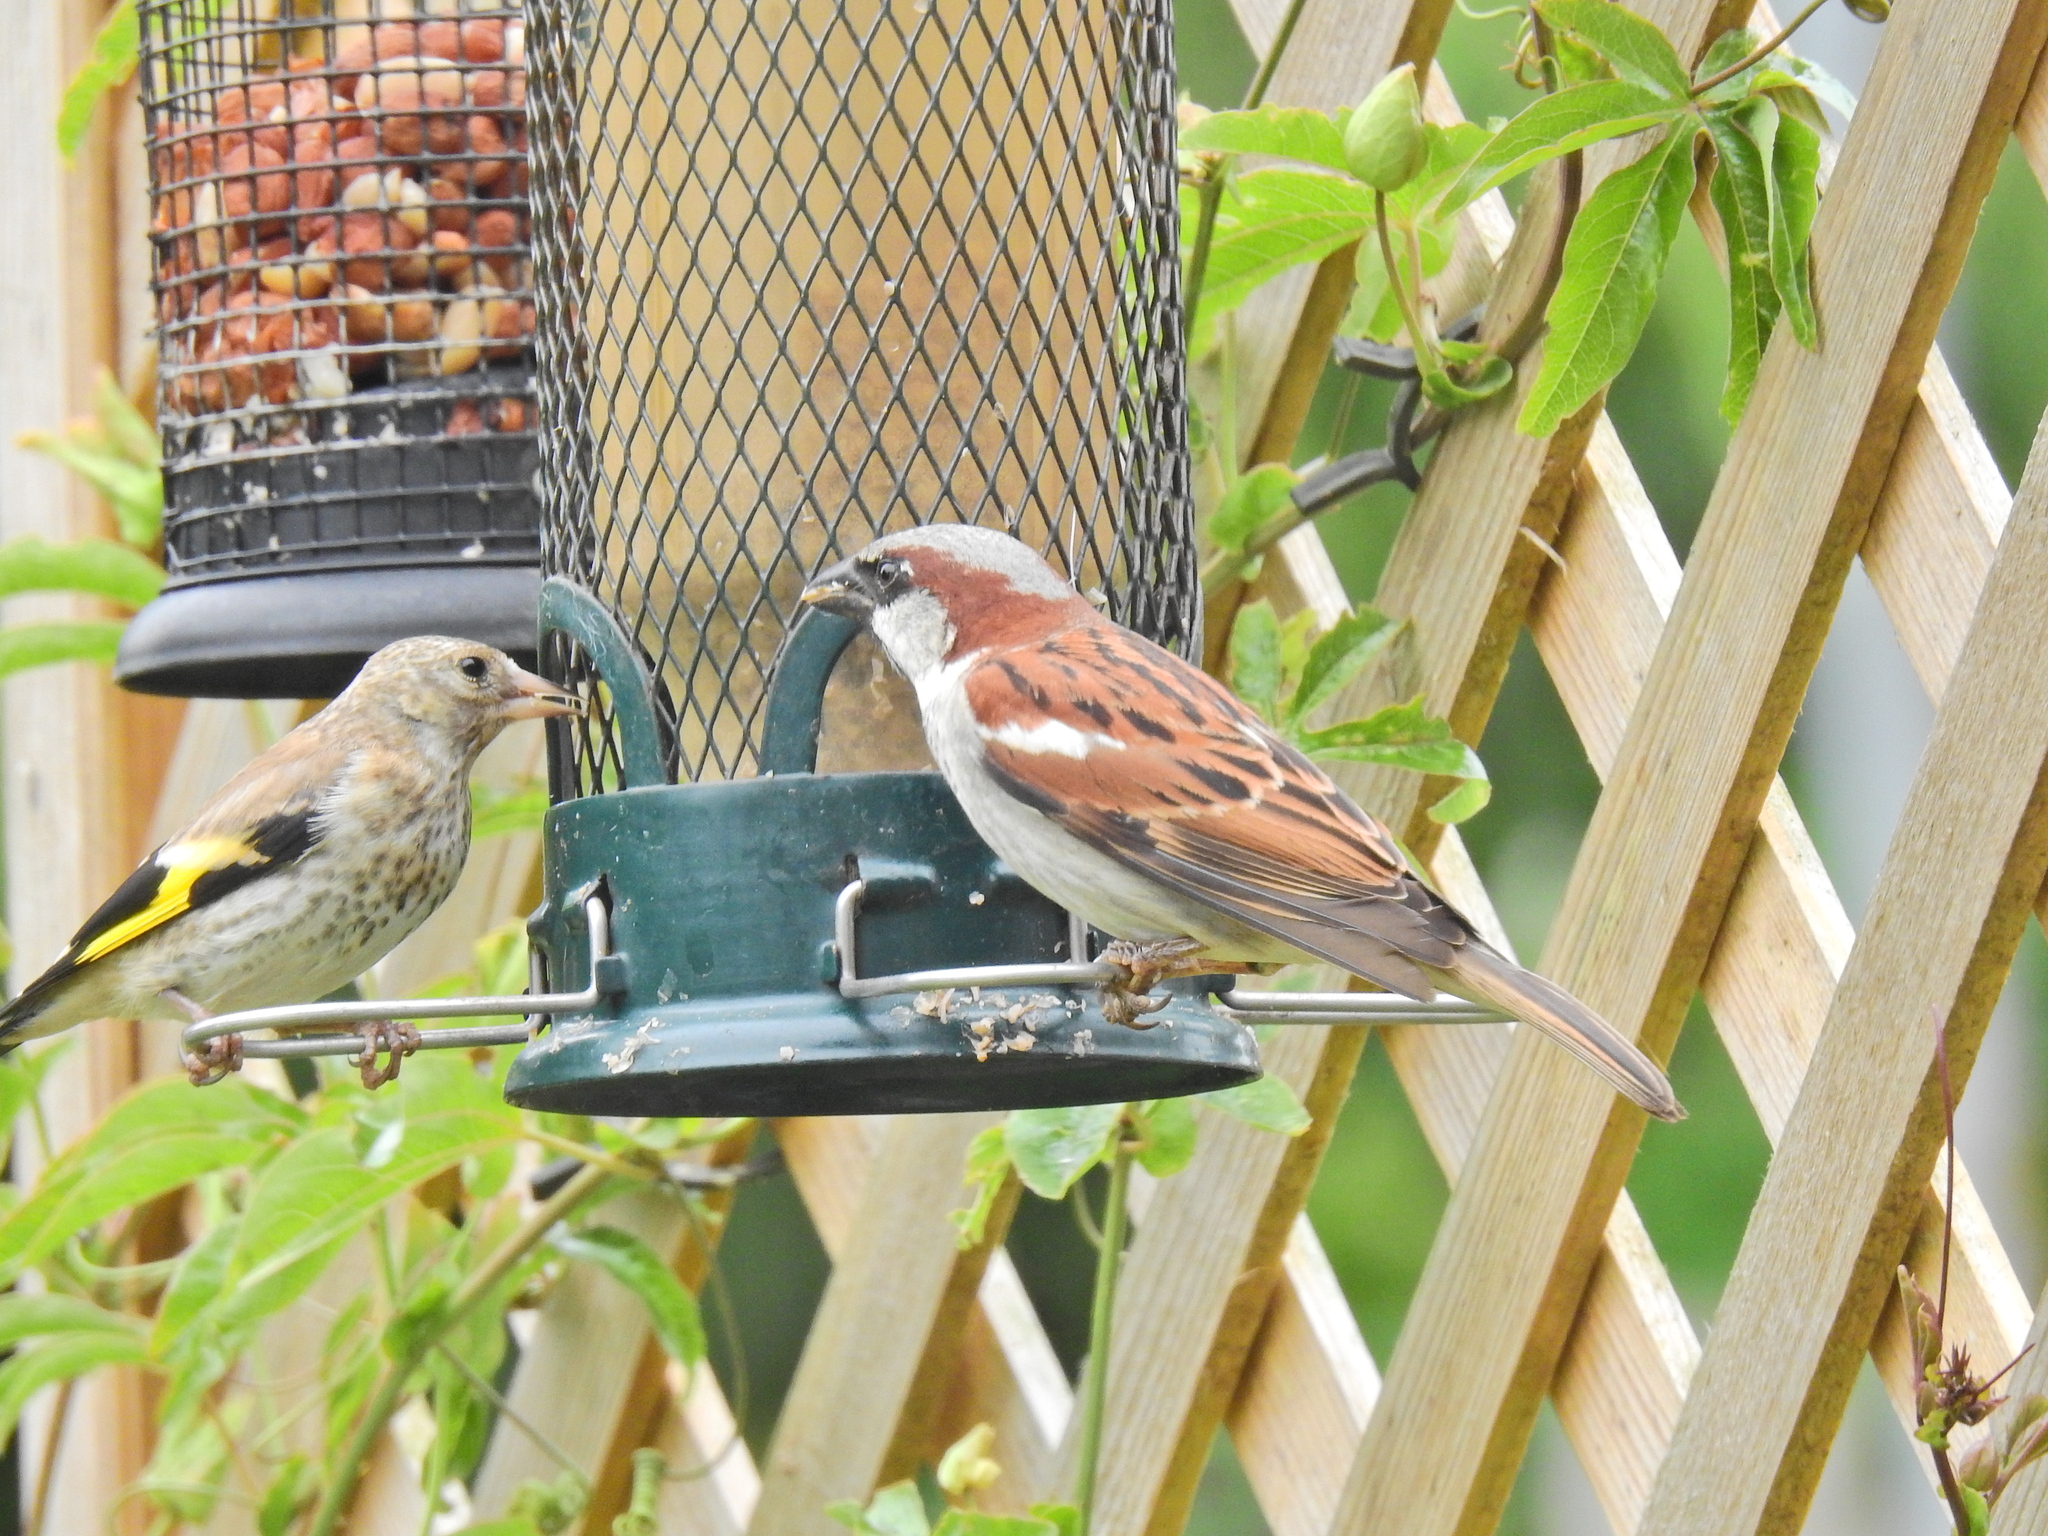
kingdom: Animalia
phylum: Chordata
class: Aves
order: Passeriformes
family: Passeridae
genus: Passer
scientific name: Passer domesticus
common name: House sparrow
